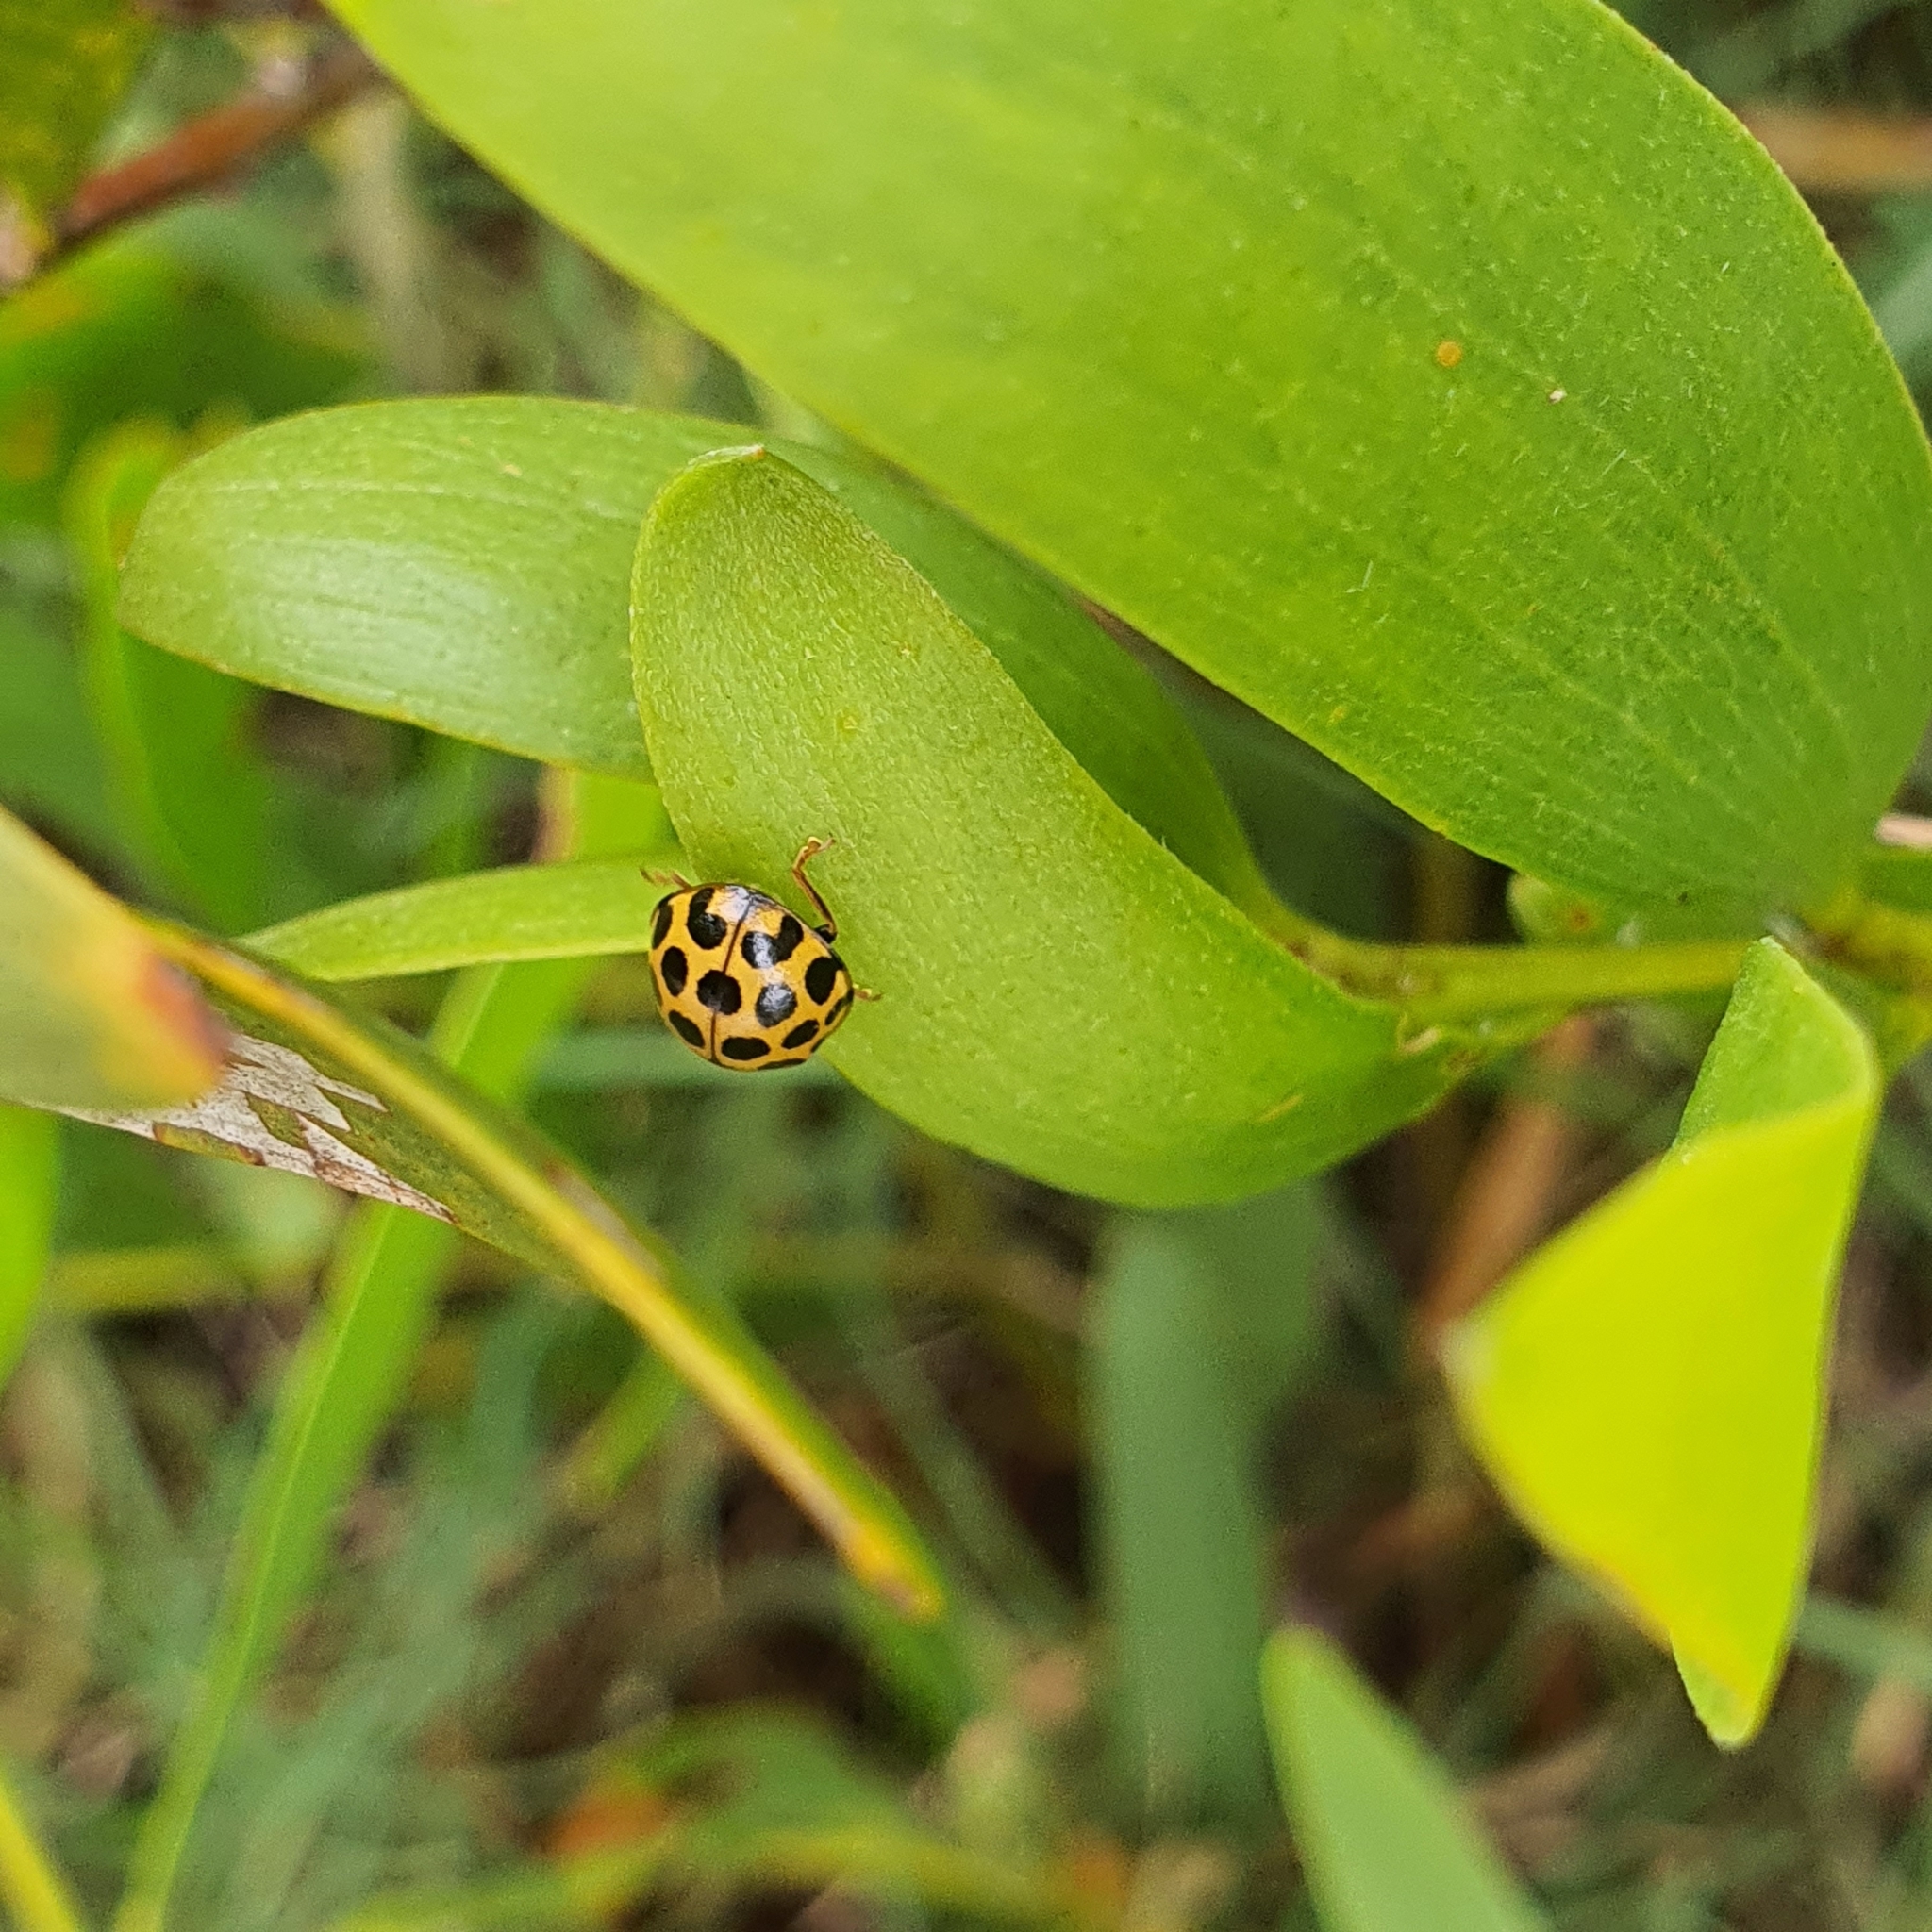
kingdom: Animalia
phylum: Arthropoda
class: Insecta
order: Coleoptera
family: Coccinellidae
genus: Harmonia
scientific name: Harmonia conformis
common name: Common spotted ladybird beetle
